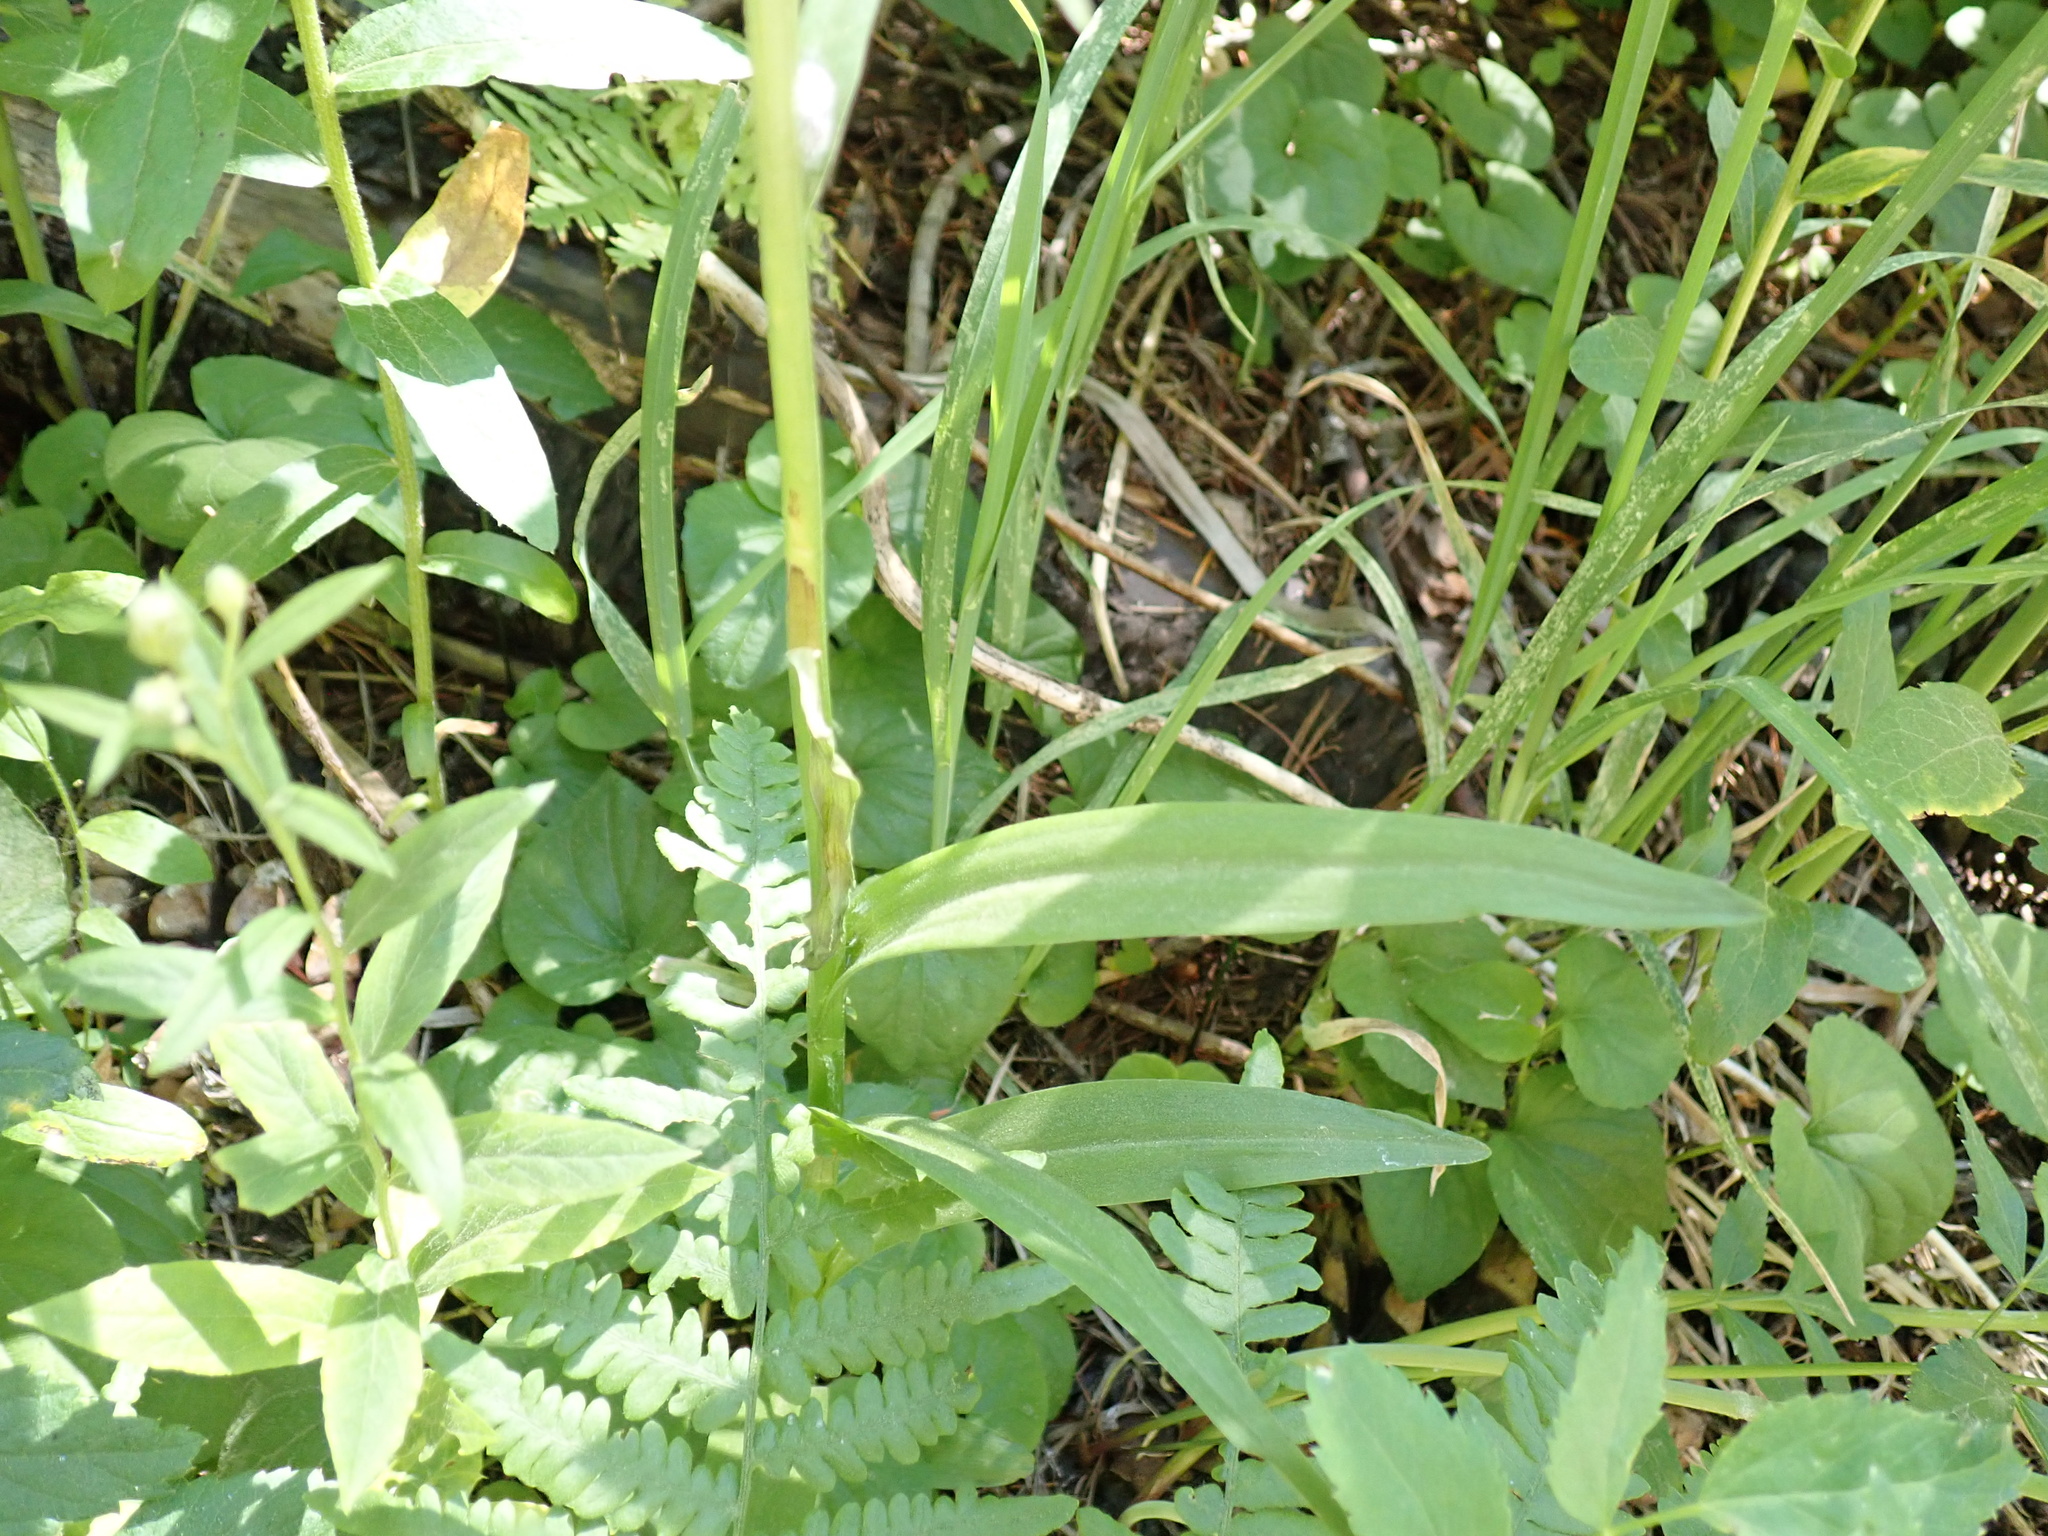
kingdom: Plantae
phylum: Tracheophyta
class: Liliopsida
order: Asparagales
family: Orchidaceae
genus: Platanthera
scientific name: Platanthera dilatata
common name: Bog candles
